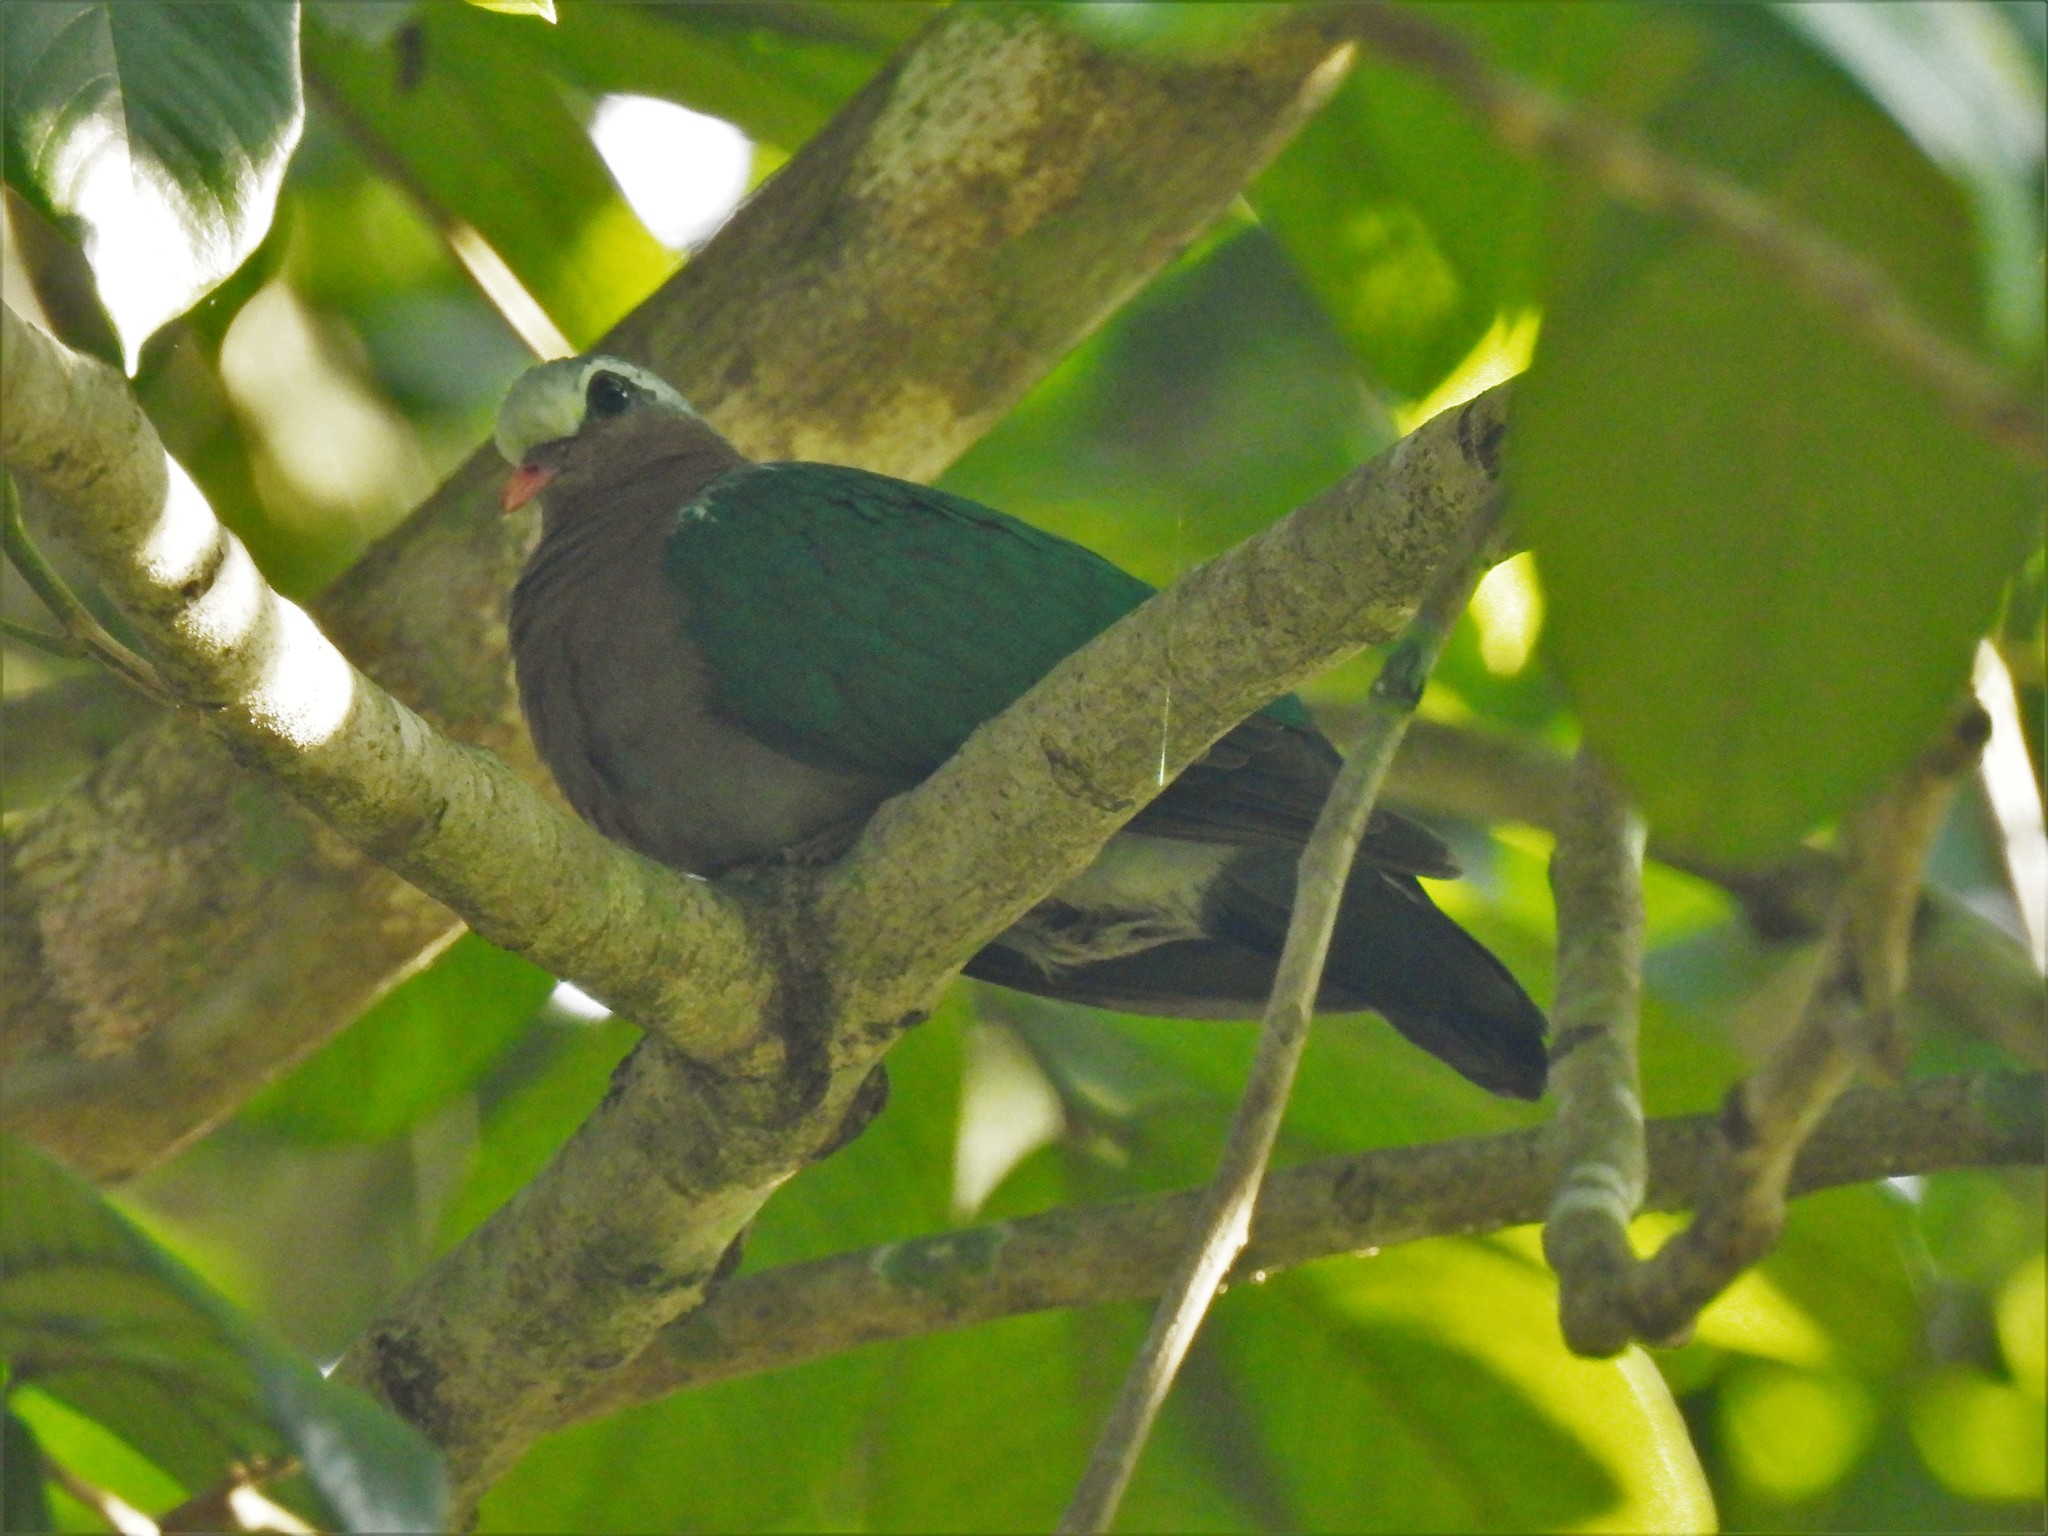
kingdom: Animalia
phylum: Chordata
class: Aves
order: Columbiformes
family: Columbidae
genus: Chalcophaps
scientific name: Chalcophaps indica
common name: Common emerald dove
